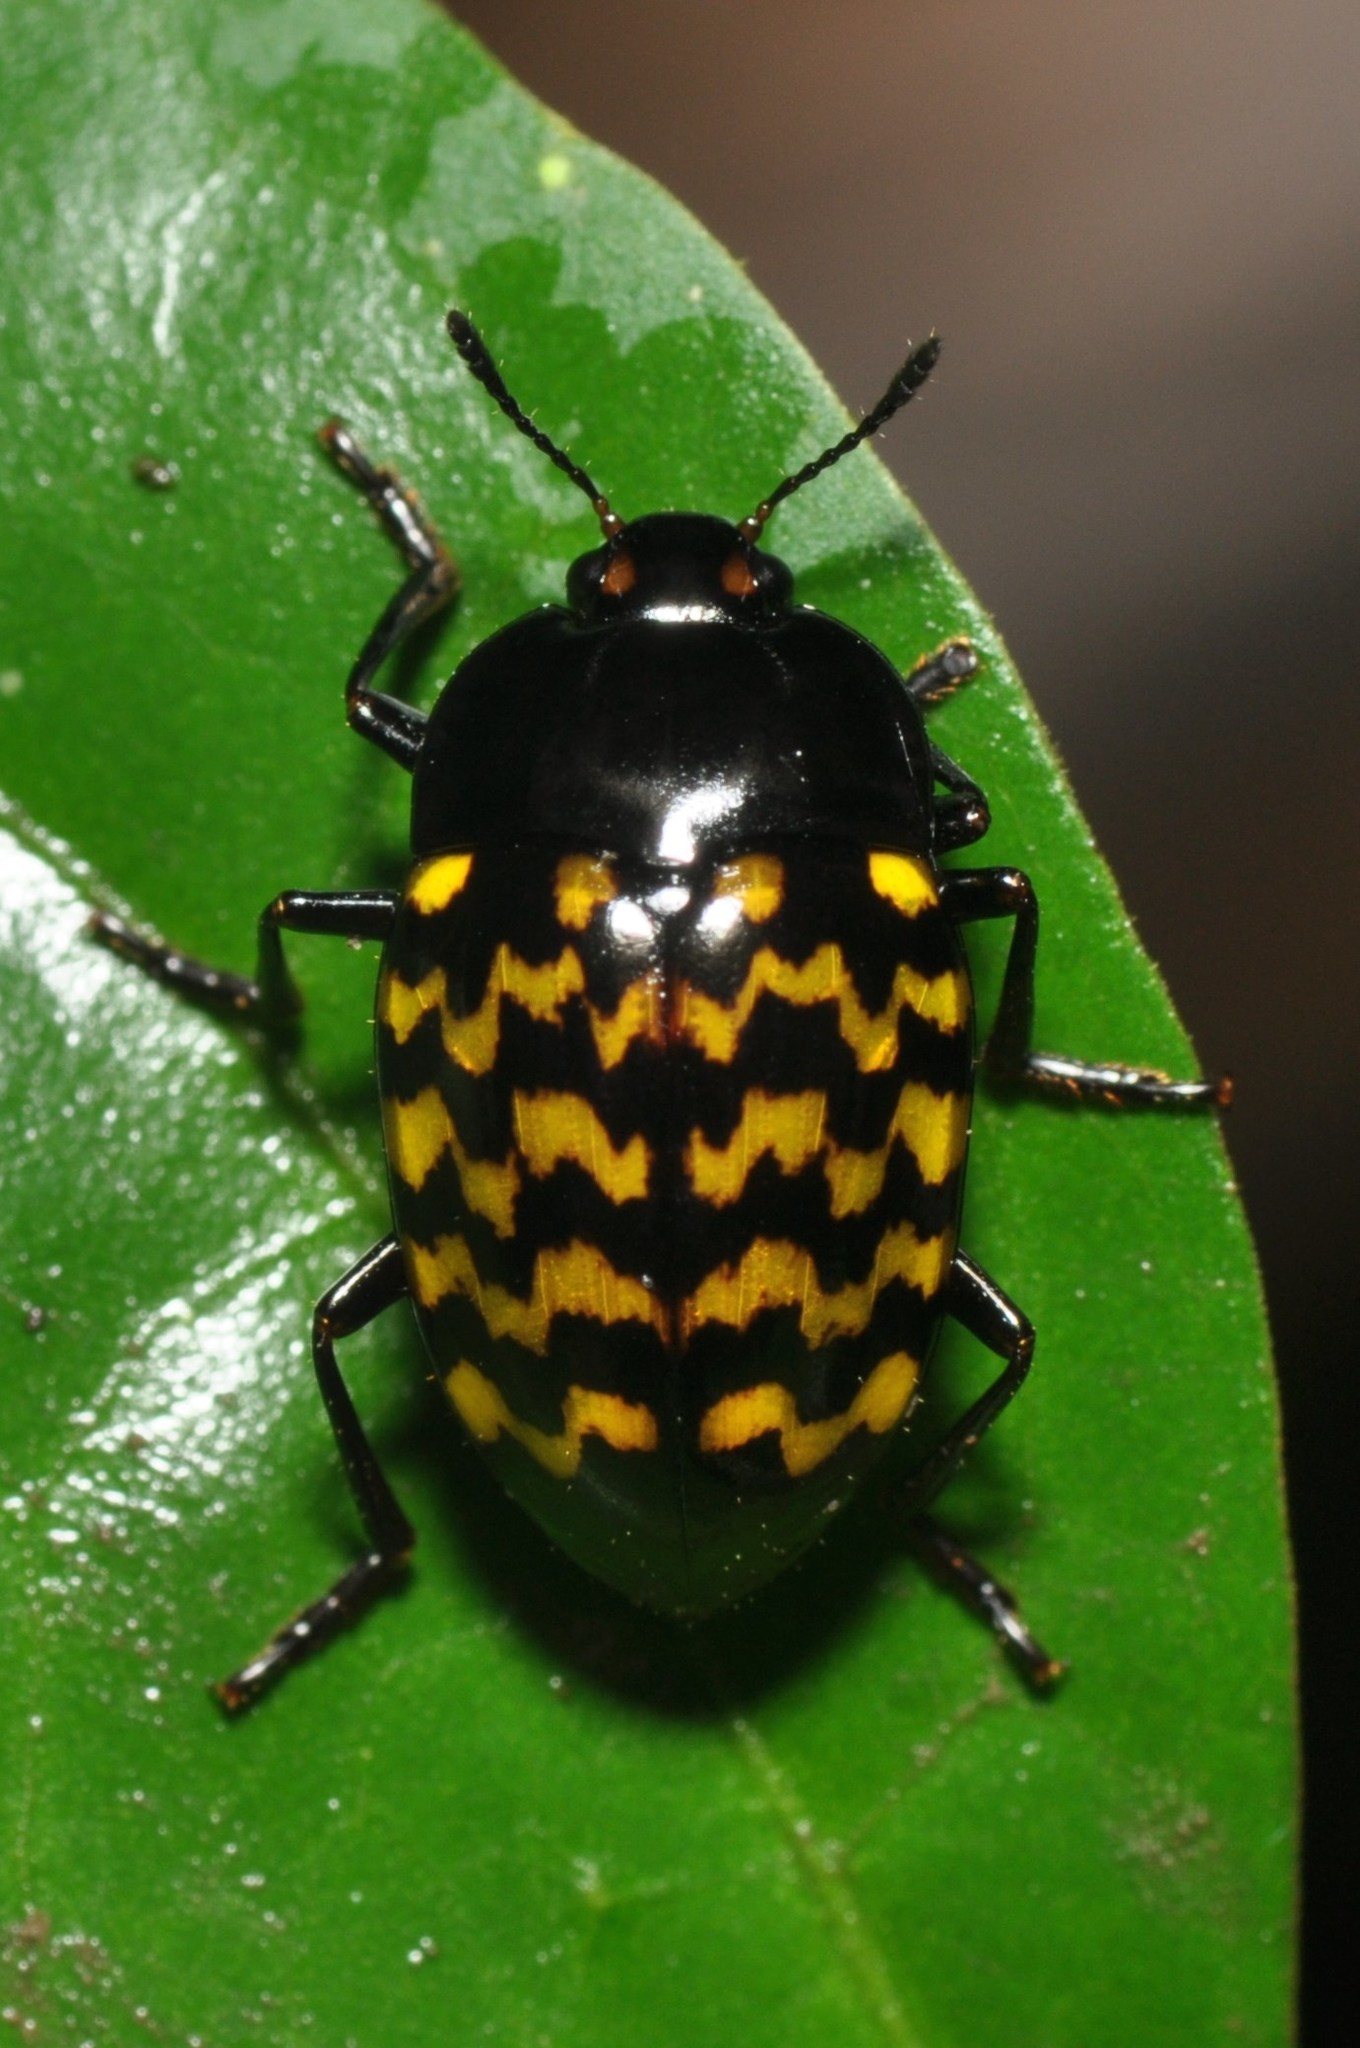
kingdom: Animalia
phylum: Arthropoda
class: Insecta
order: Coleoptera
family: Erotylidae
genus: Iphiclus
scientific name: Iphiclus
